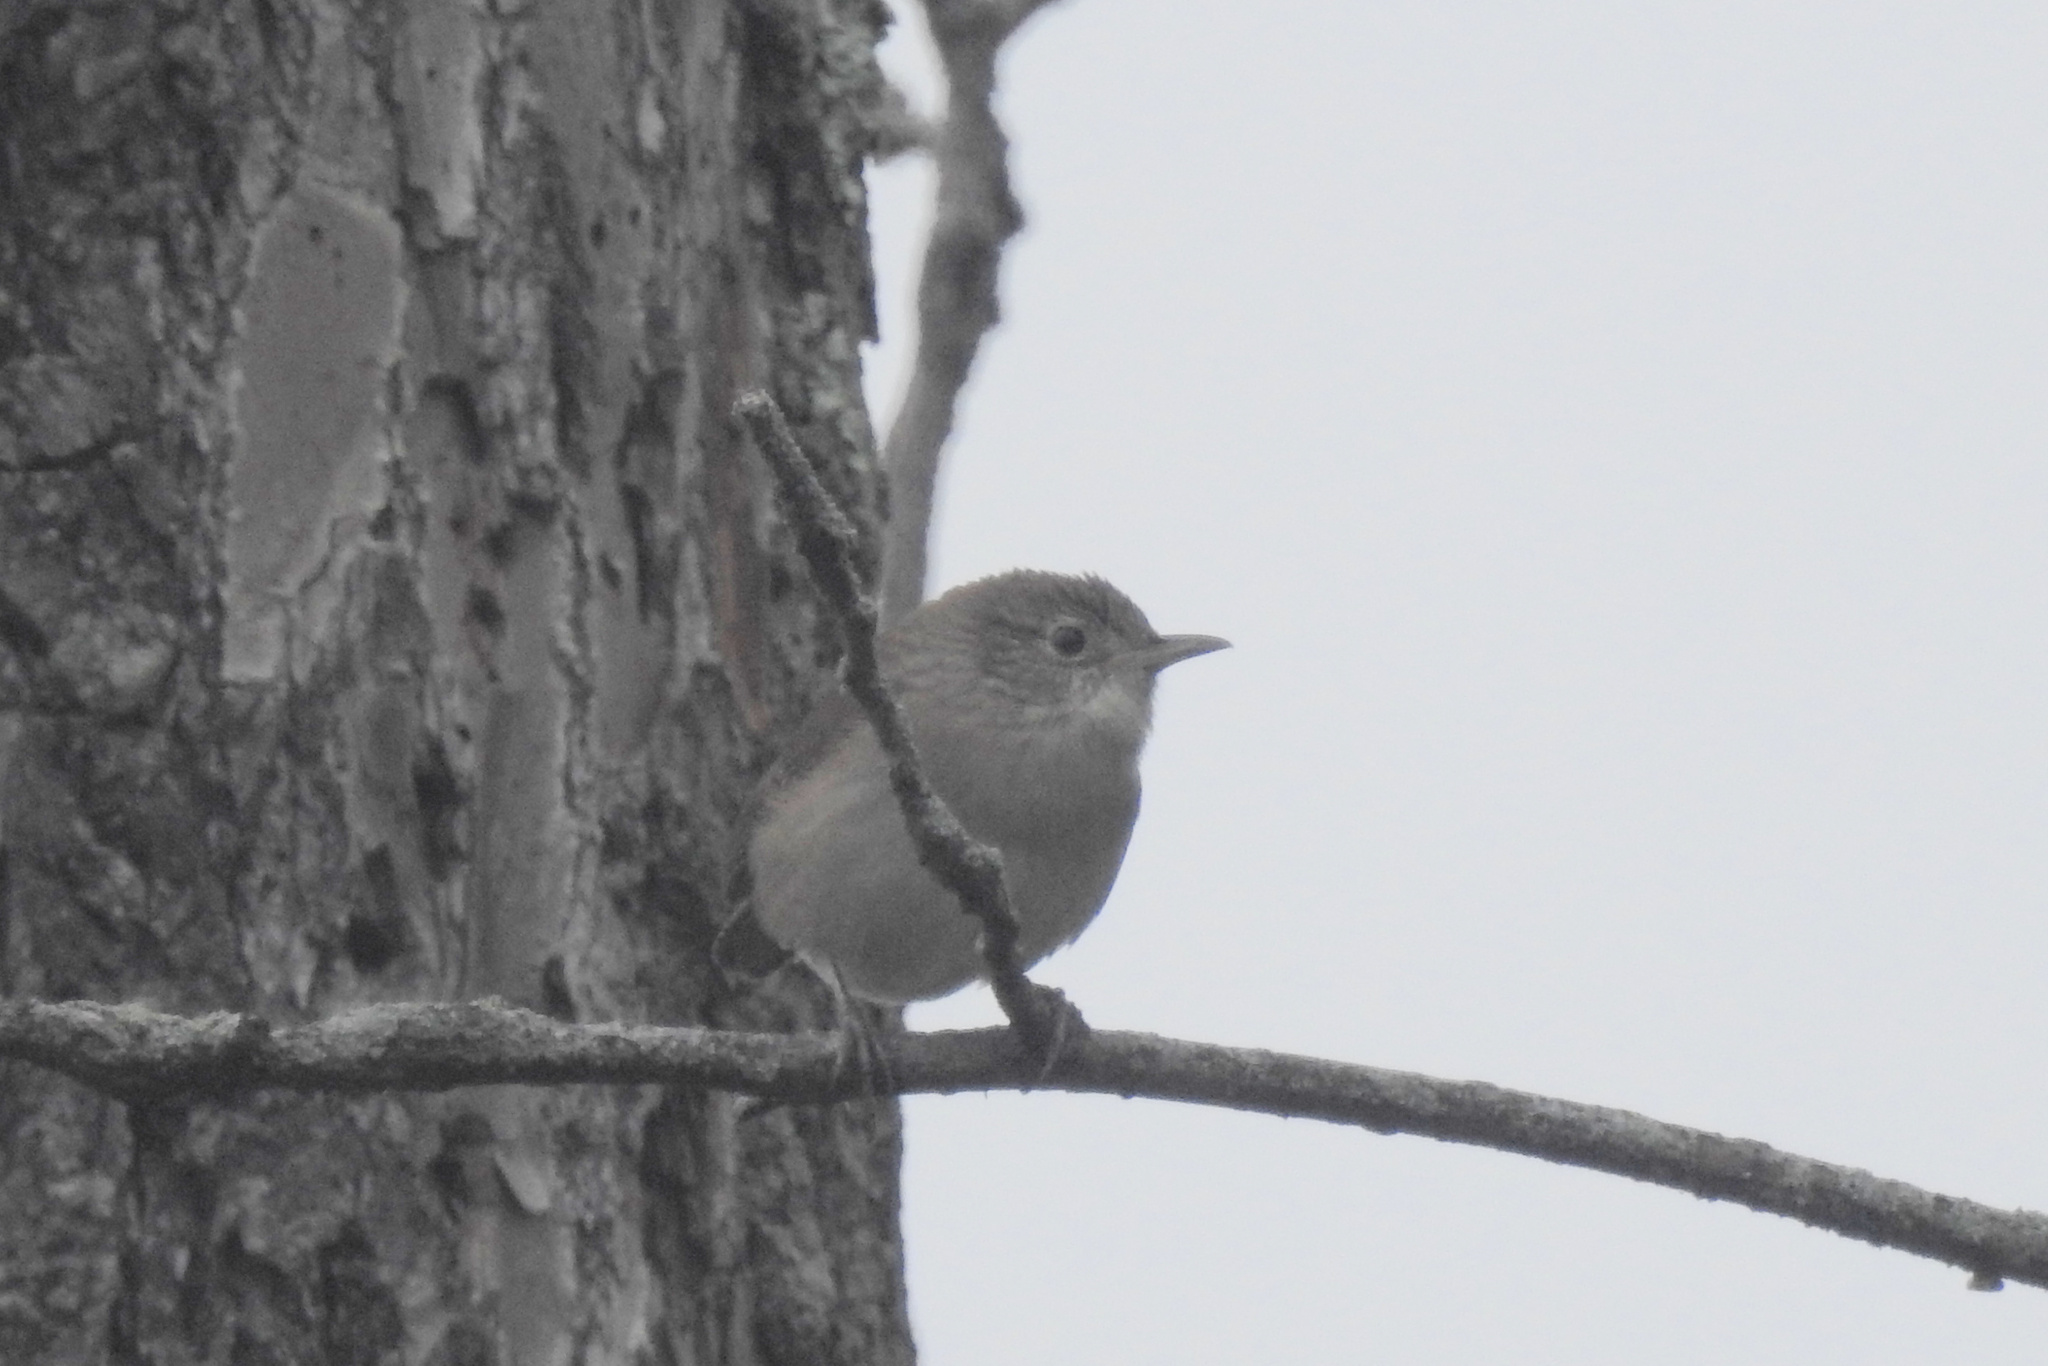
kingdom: Animalia
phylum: Chordata
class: Aves
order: Passeriformes
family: Troglodytidae
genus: Troglodytes
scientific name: Troglodytes aedon
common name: House wren
